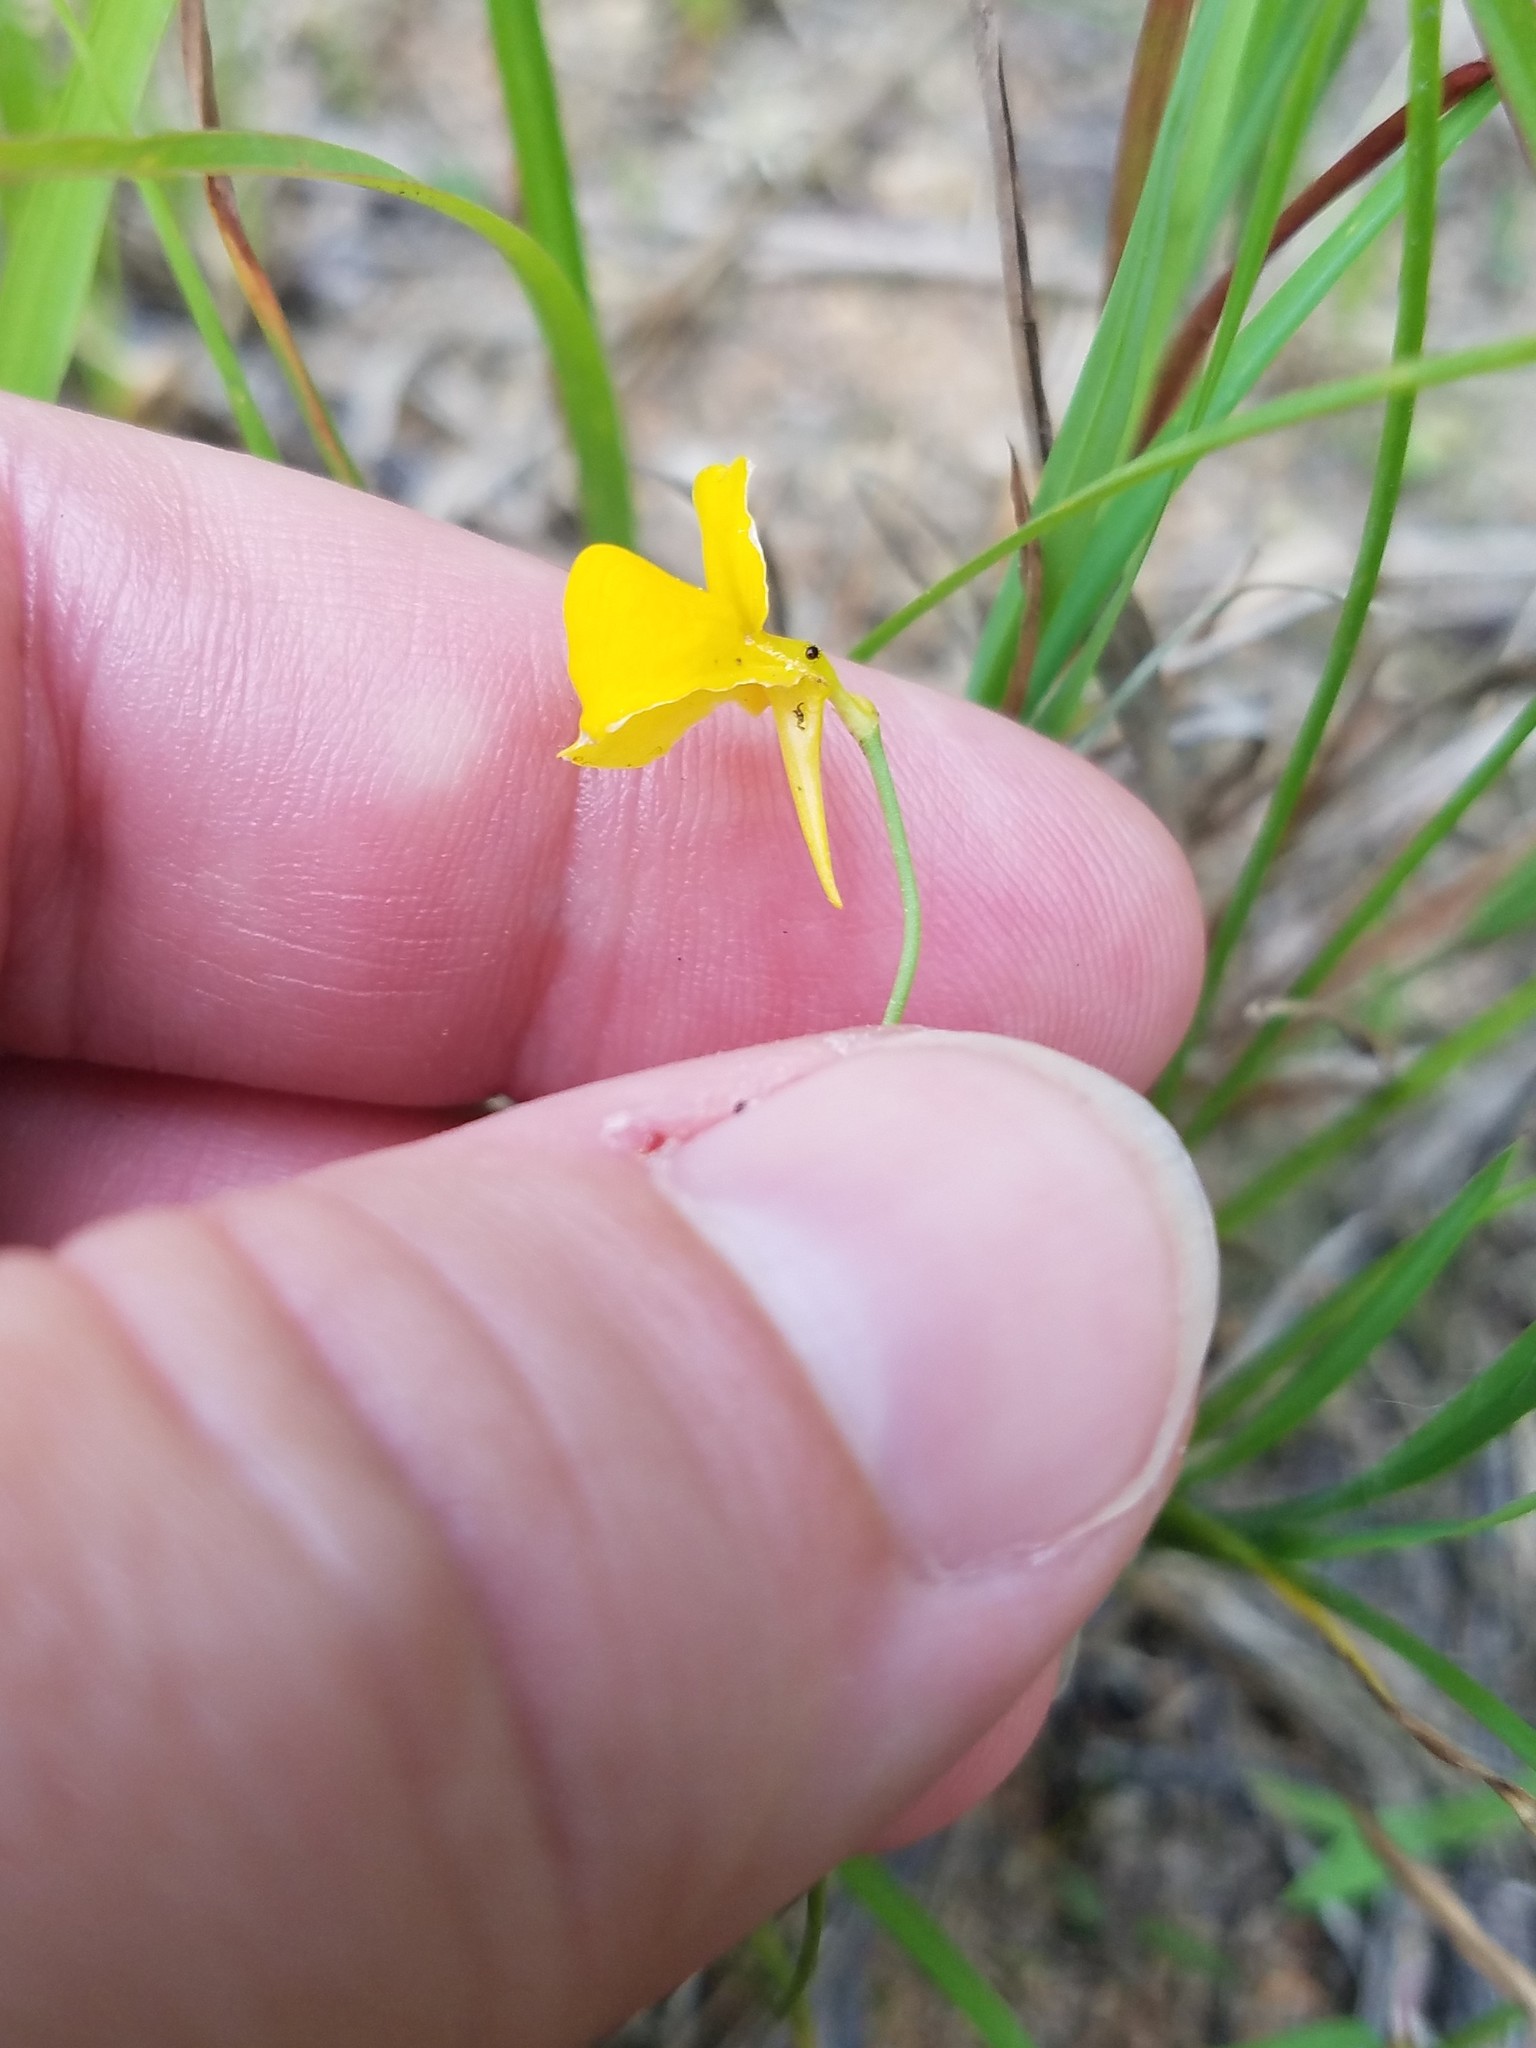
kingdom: Plantae
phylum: Tracheophyta
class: Magnoliopsida
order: Lamiales
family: Lentibulariaceae
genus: Utricularia
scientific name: Utricularia cornuta
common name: Horned bladderwort
